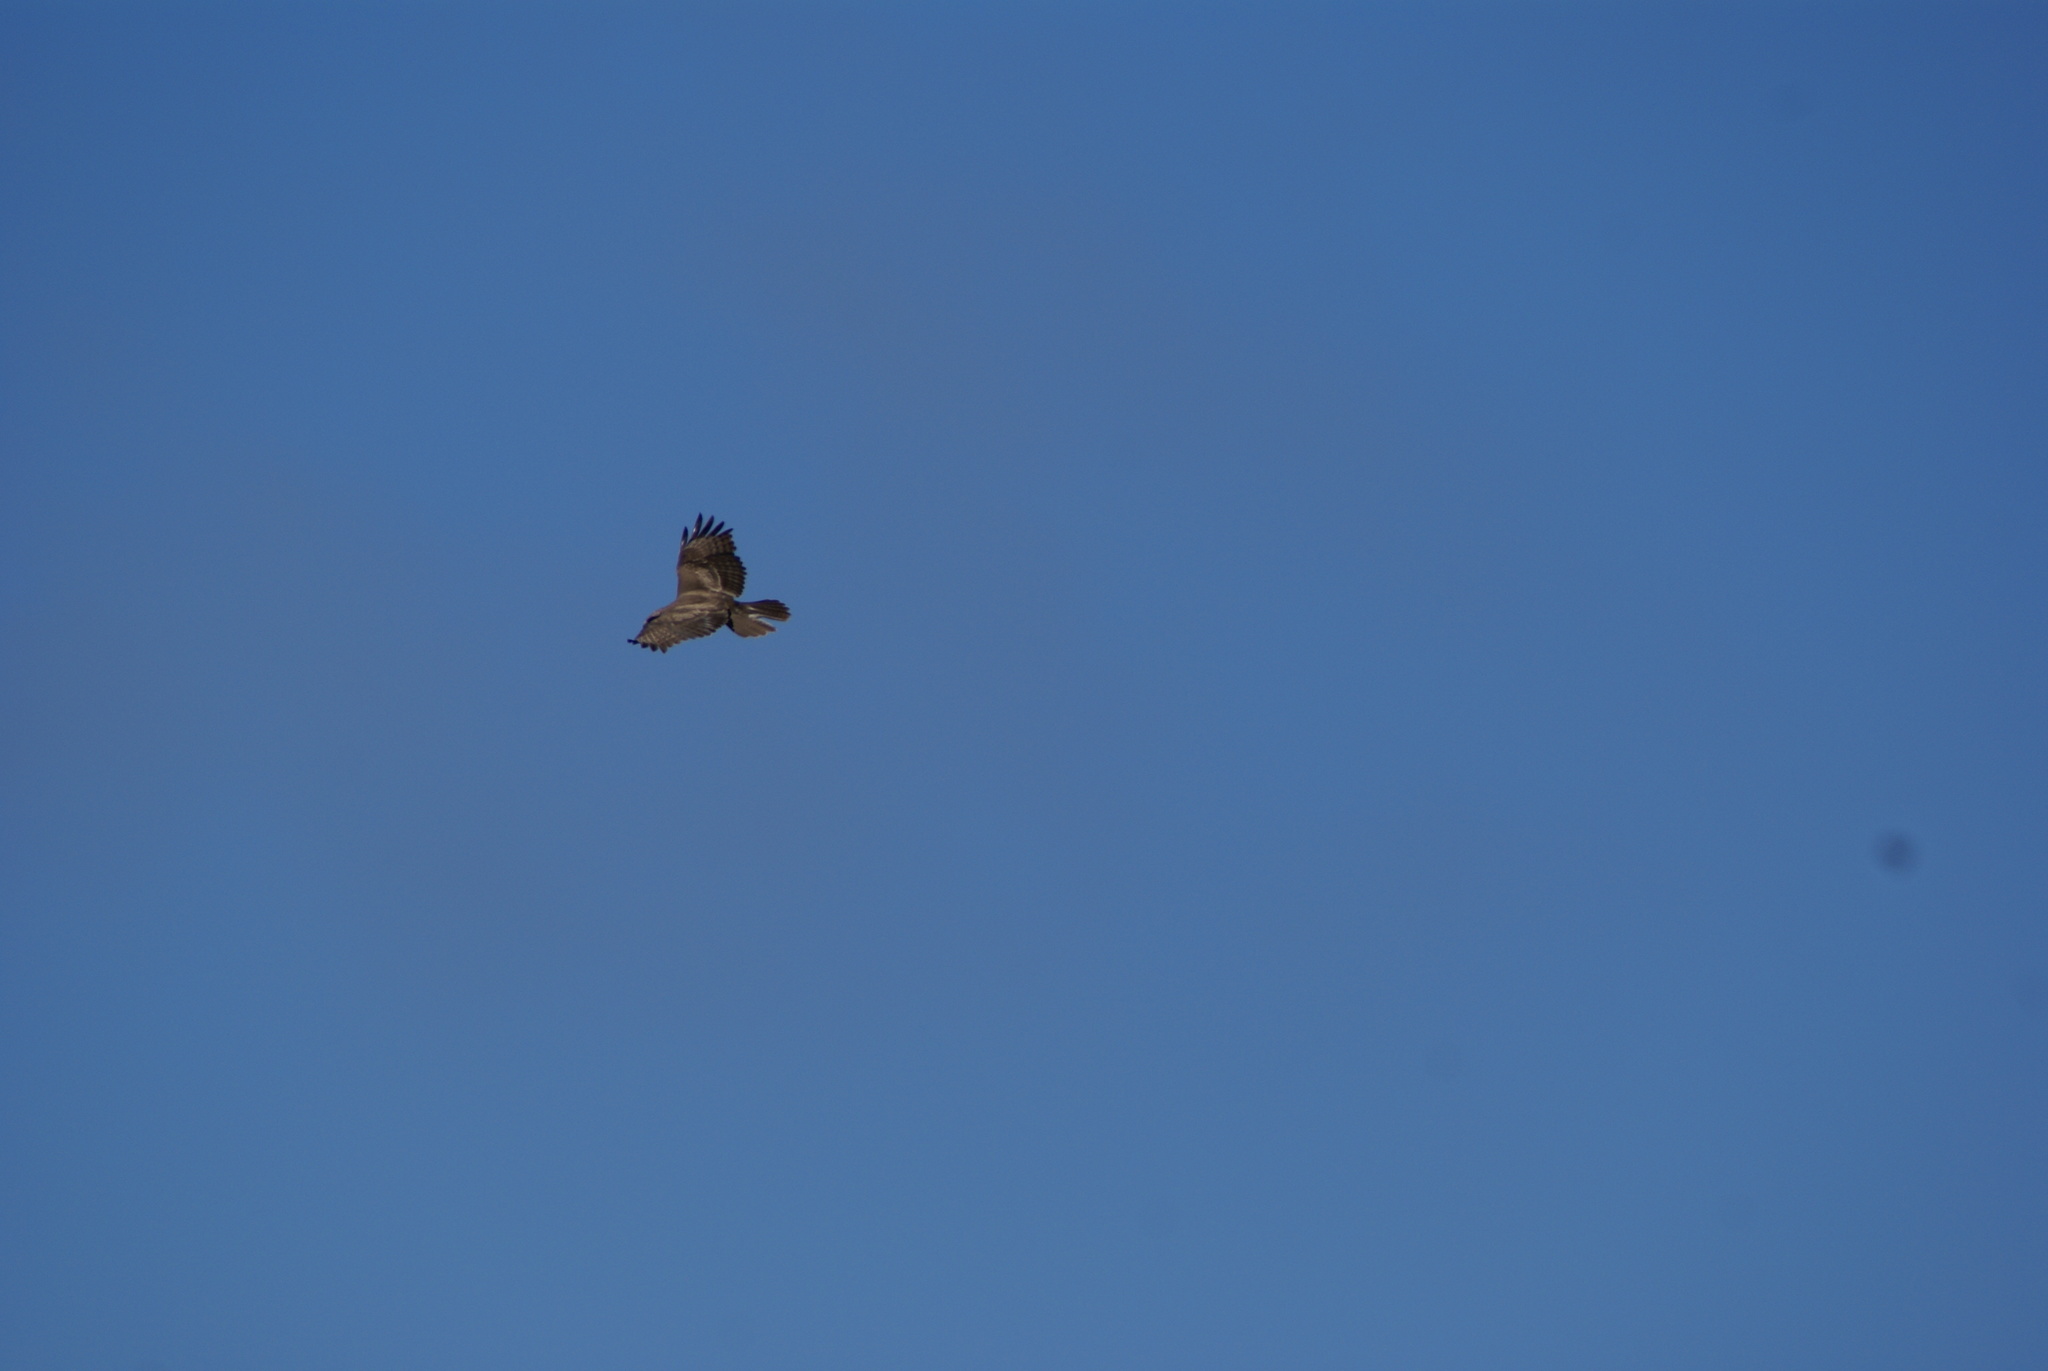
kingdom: Animalia
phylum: Chordata
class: Aves
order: Accipitriformes
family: Accipitridae
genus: Buteo
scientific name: Buteo buteo
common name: Common buzzard
